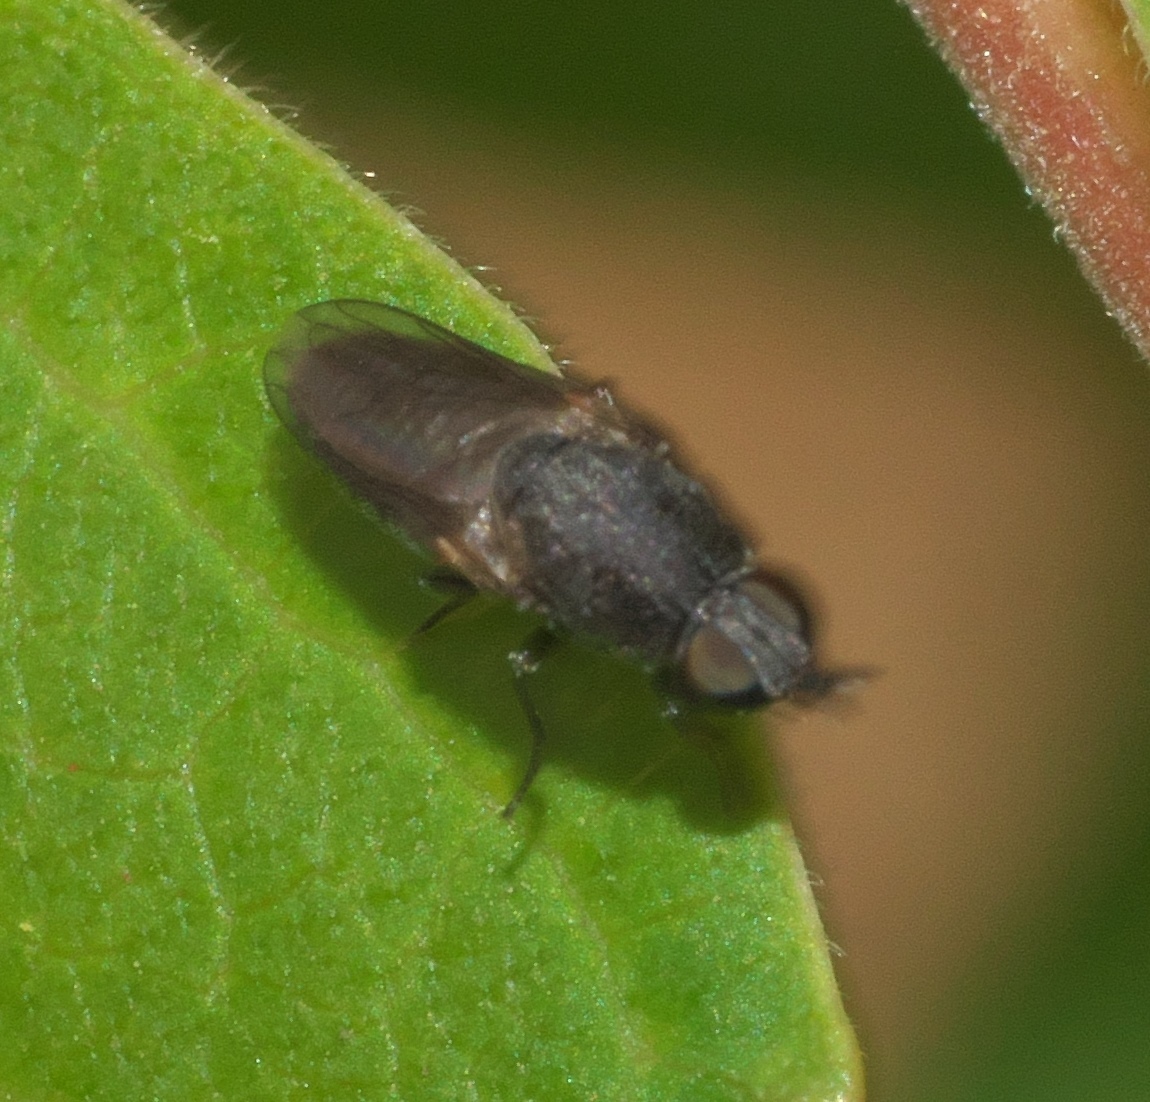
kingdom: Animalia
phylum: Arthropoda
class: Insecta
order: Diptera
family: Scenopinidae
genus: Metatrichia
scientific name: Metatrichia bulbosa
